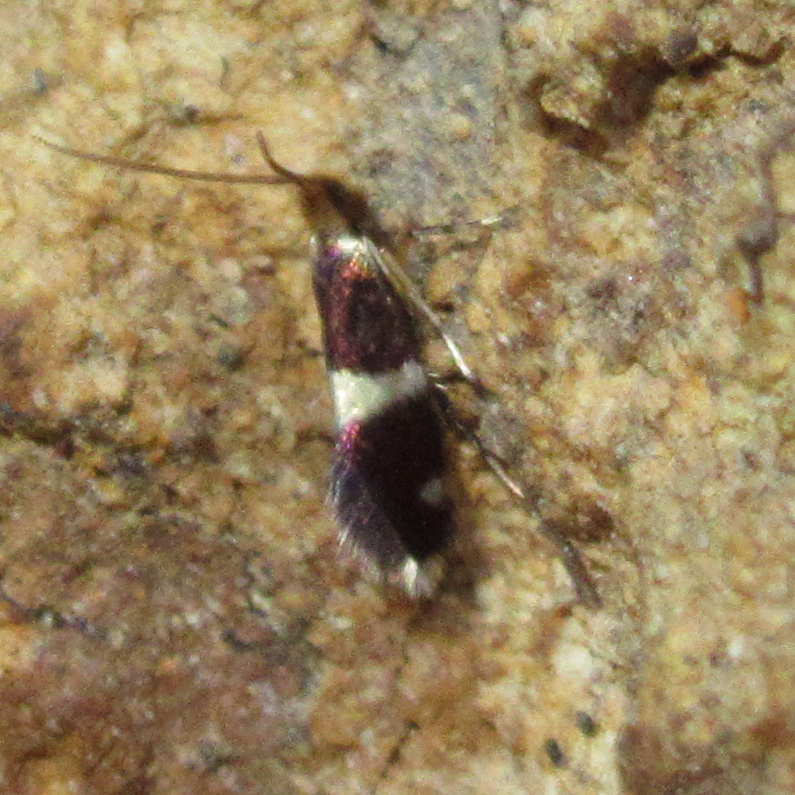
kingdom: Animalia
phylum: Arthropoda
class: Insecta
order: Lepidoptera
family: Micropterigidae
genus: Zealandopterix
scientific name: Zealandopterix zonodoxa
